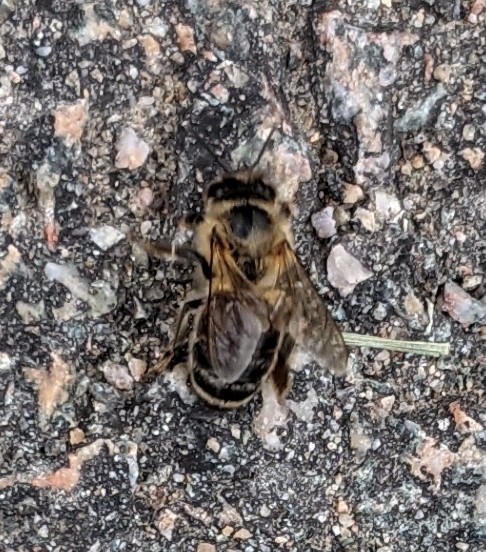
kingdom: Animalia
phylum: Arthropoda
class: Insecta
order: Hymenoptera
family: Apidae
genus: Apis
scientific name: Apis mellifera
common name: Honey bee
